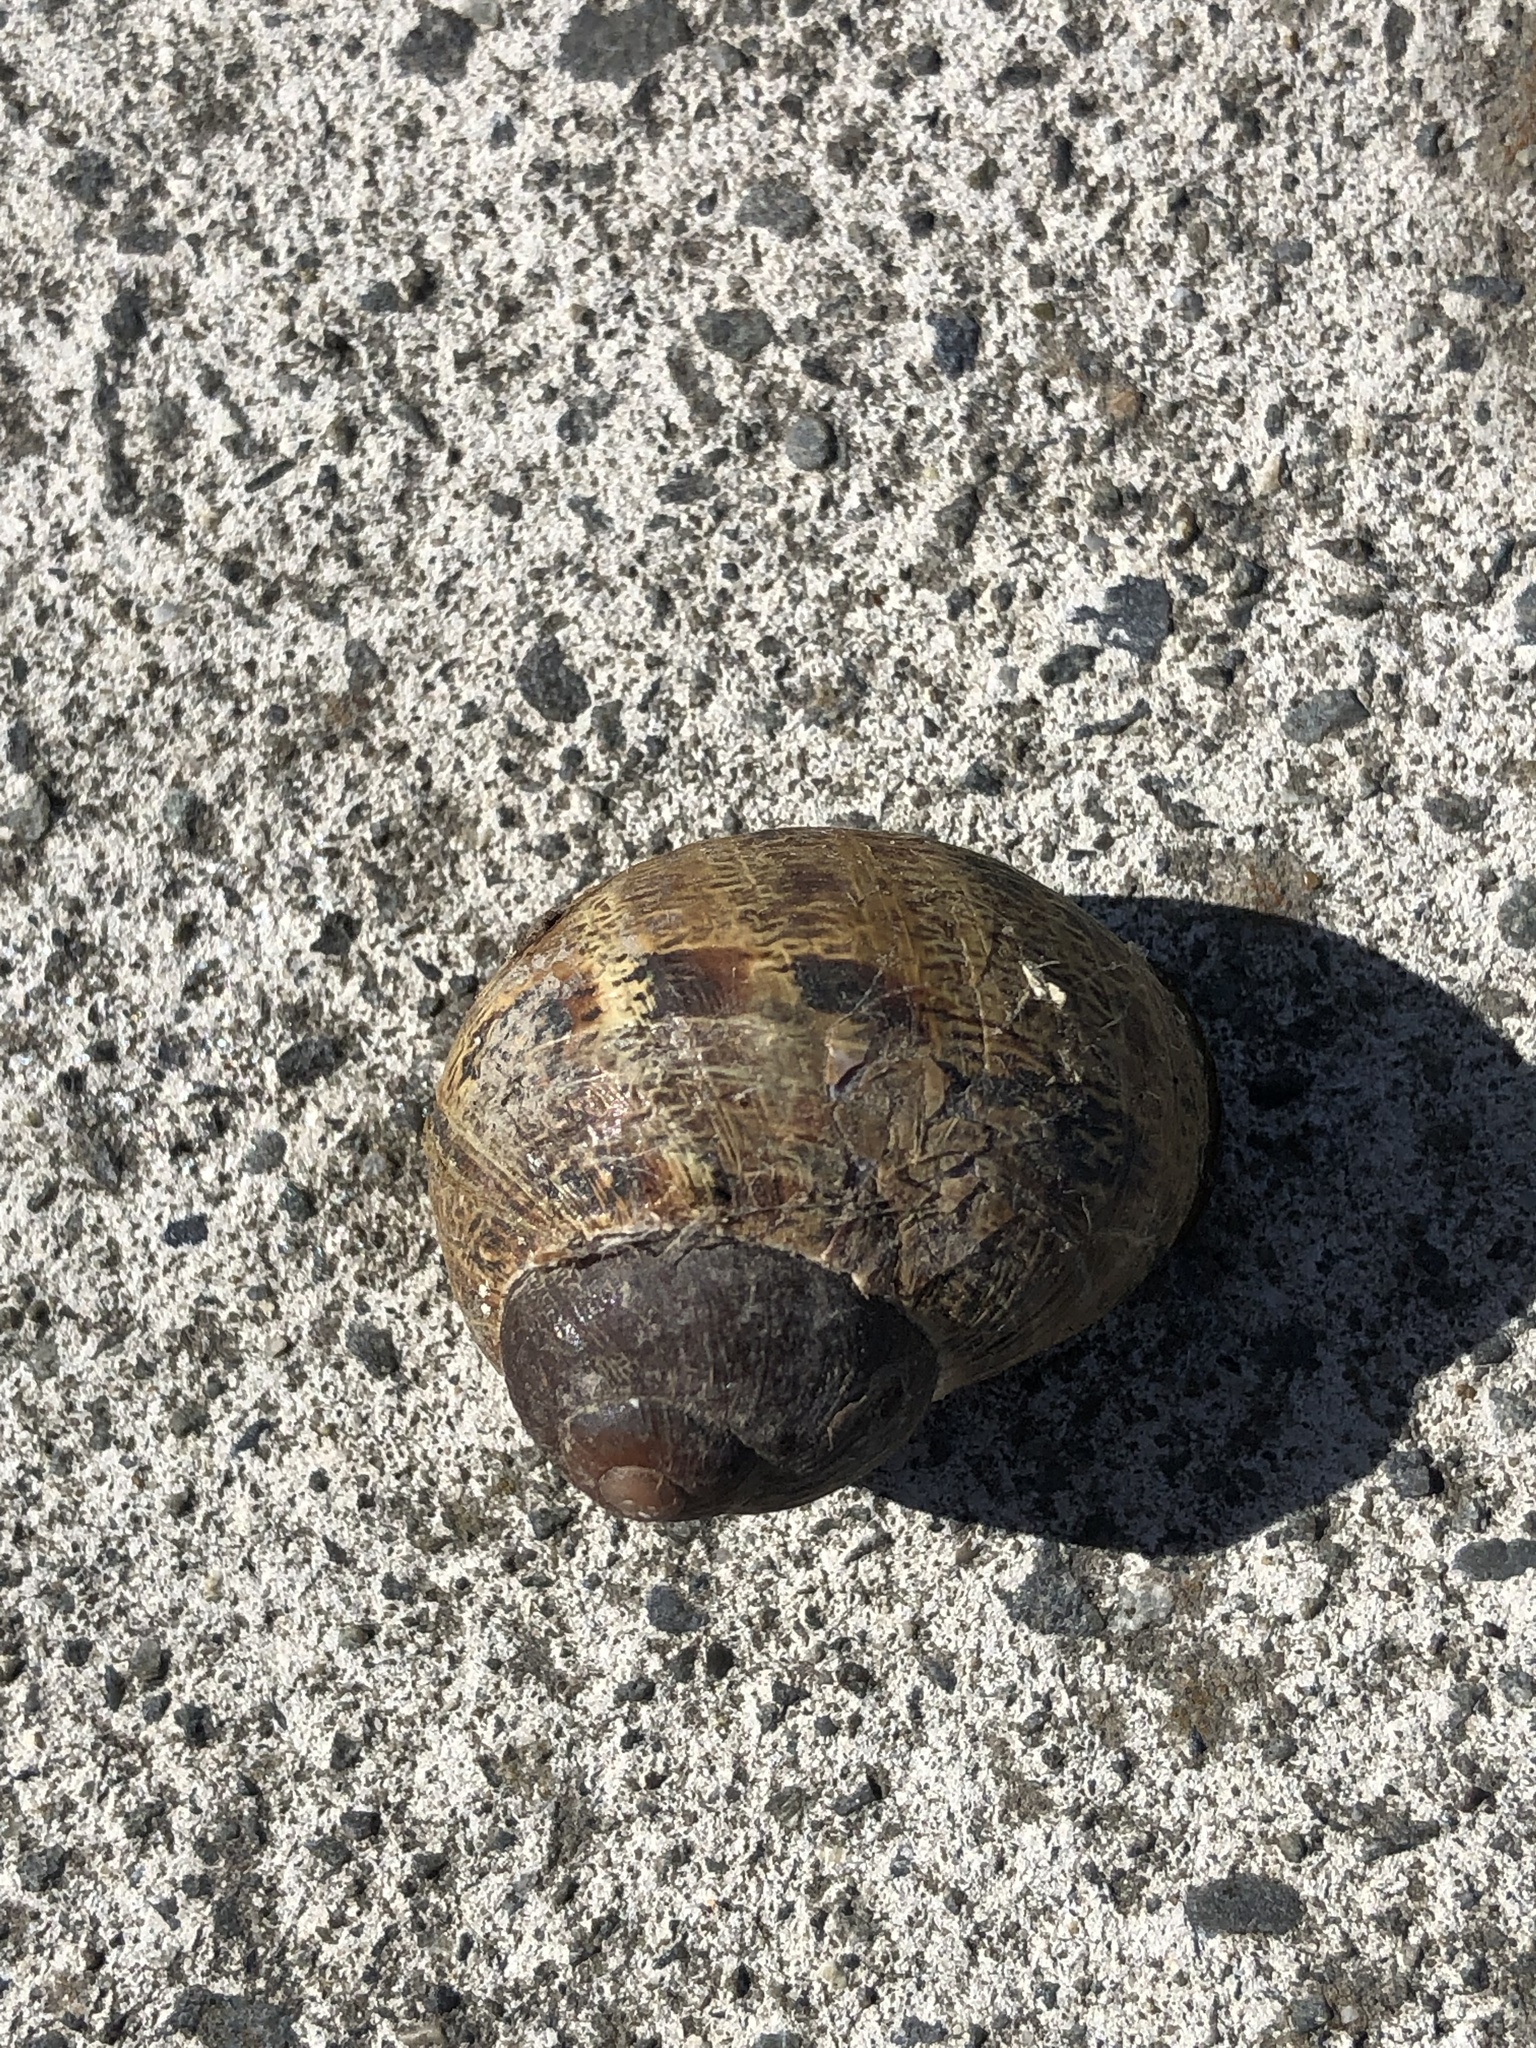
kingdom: Animalia
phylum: Mollusca
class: Gastropoda
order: Stylommatophora
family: Helicidae
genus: Cornu
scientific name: Cornu aspersum
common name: Brown garden snail
